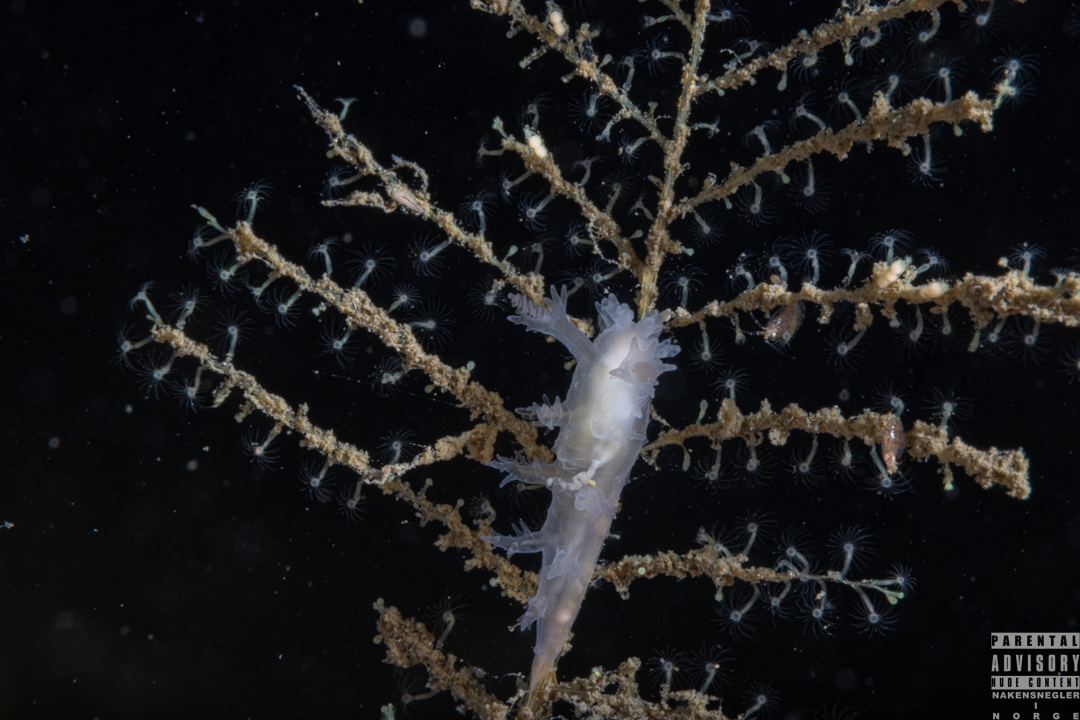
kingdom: Animalia
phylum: Mollusca
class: Gastropoda
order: Nudibranchia
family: Dendronotidae
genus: Dendronotus
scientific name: Dendronotus frondosus
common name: Bushy-backed nudibranch
